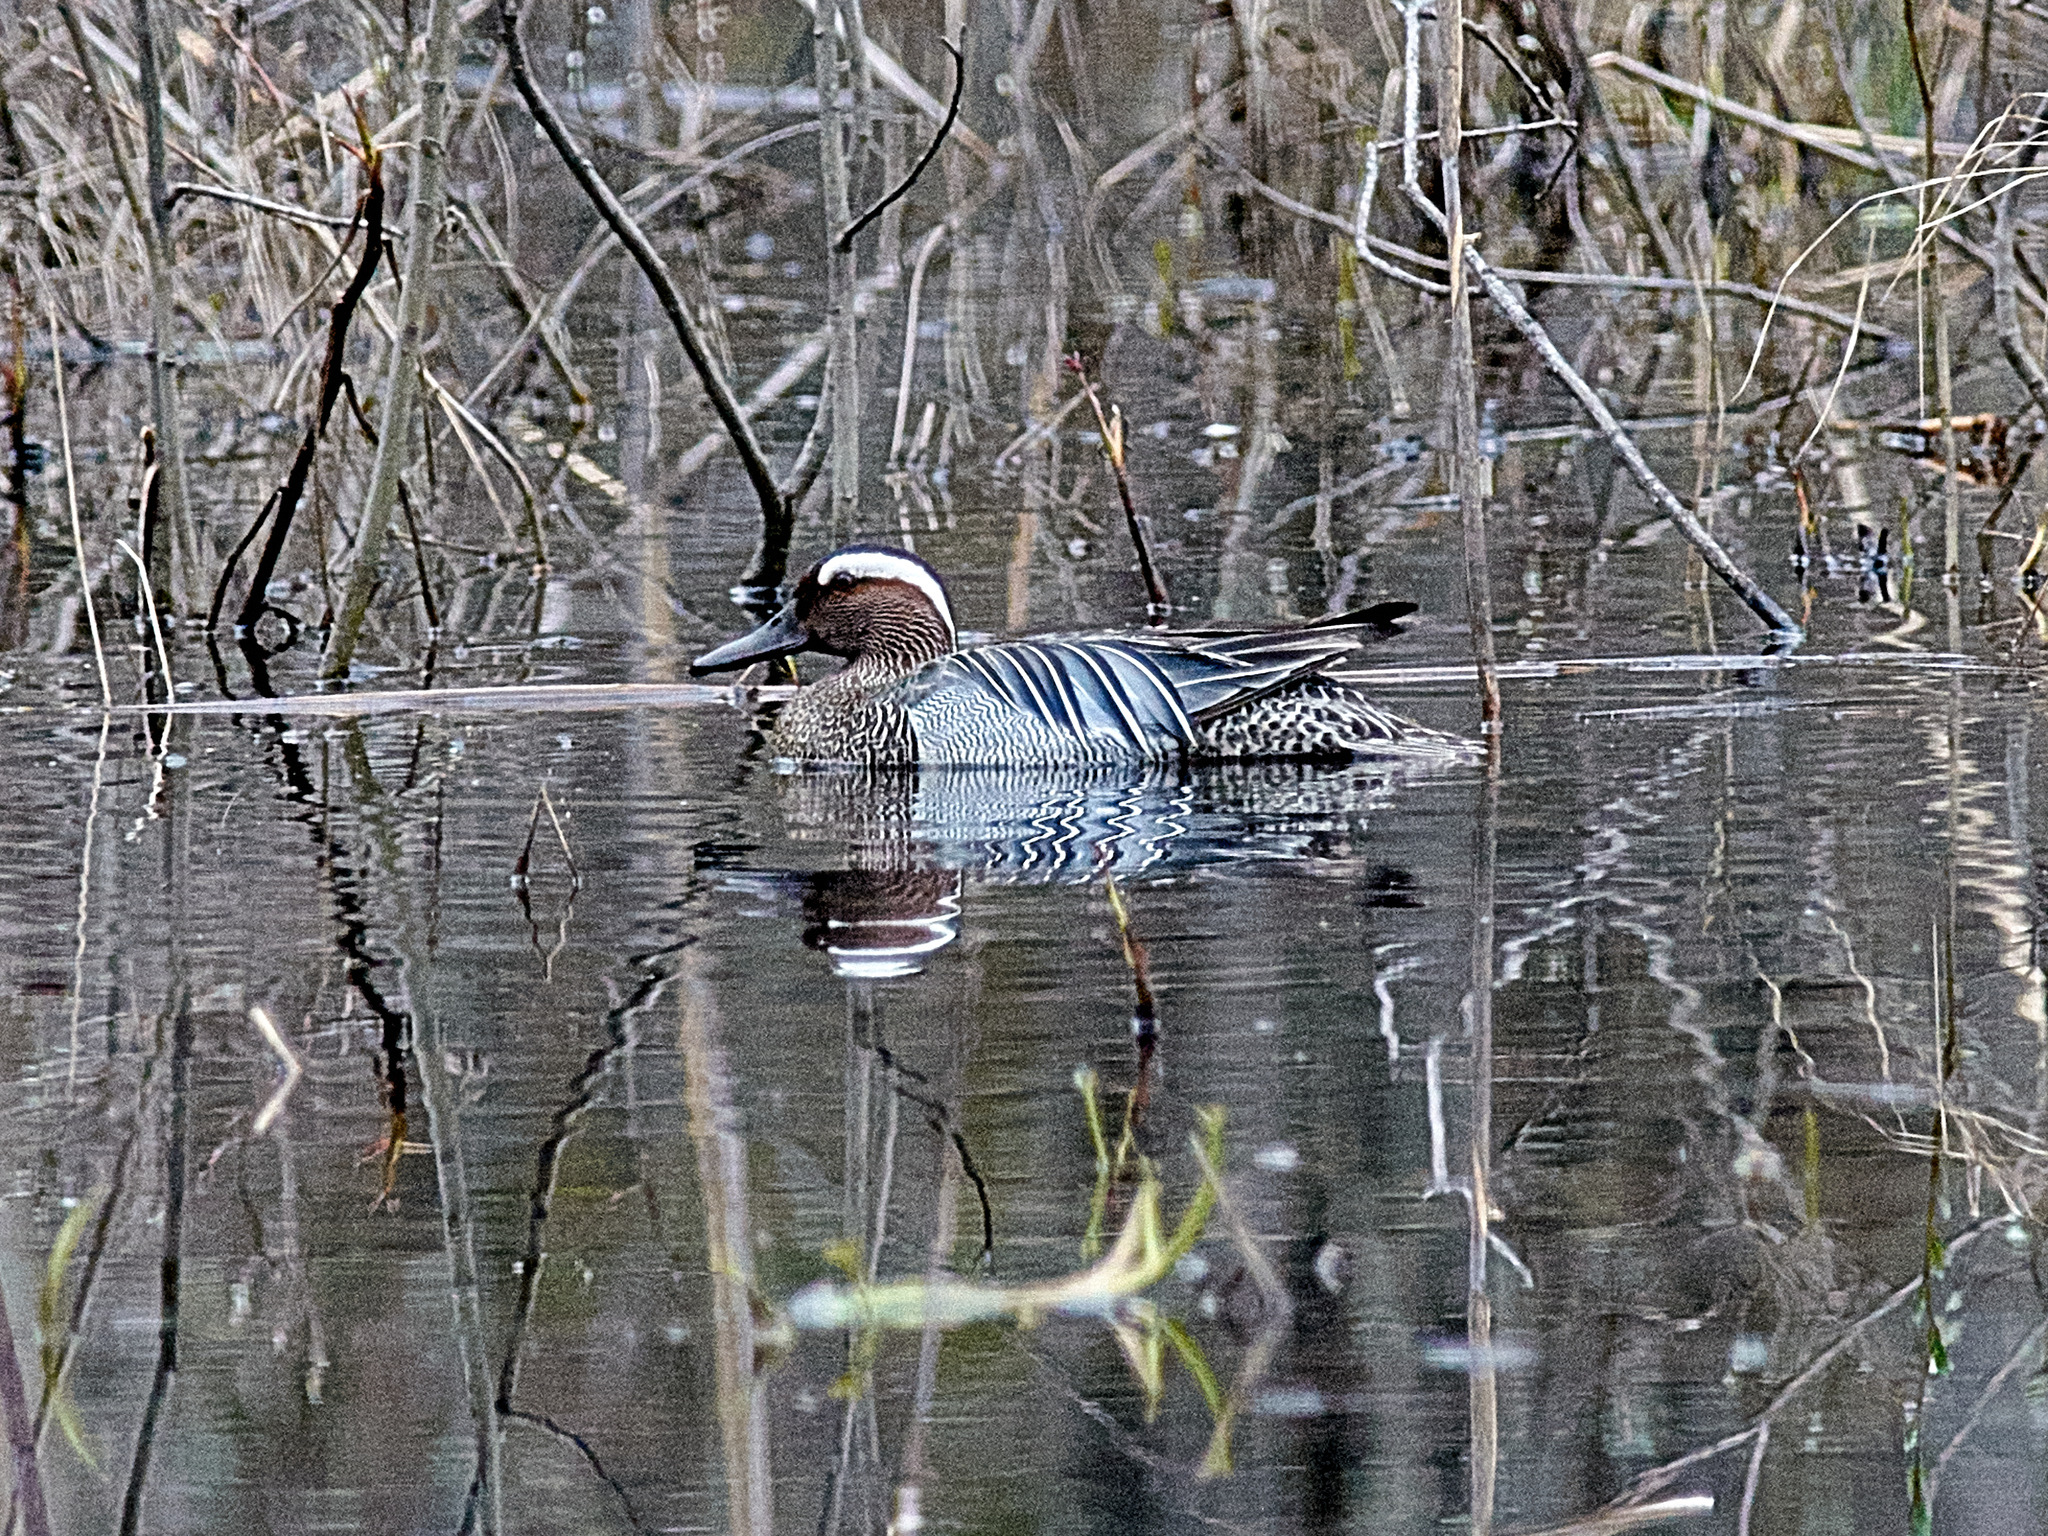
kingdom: Animalia
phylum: Chordata
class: Aves
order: Anseriformes
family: Anatidae
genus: Spatula
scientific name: Spatula querquedula
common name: Garganey
